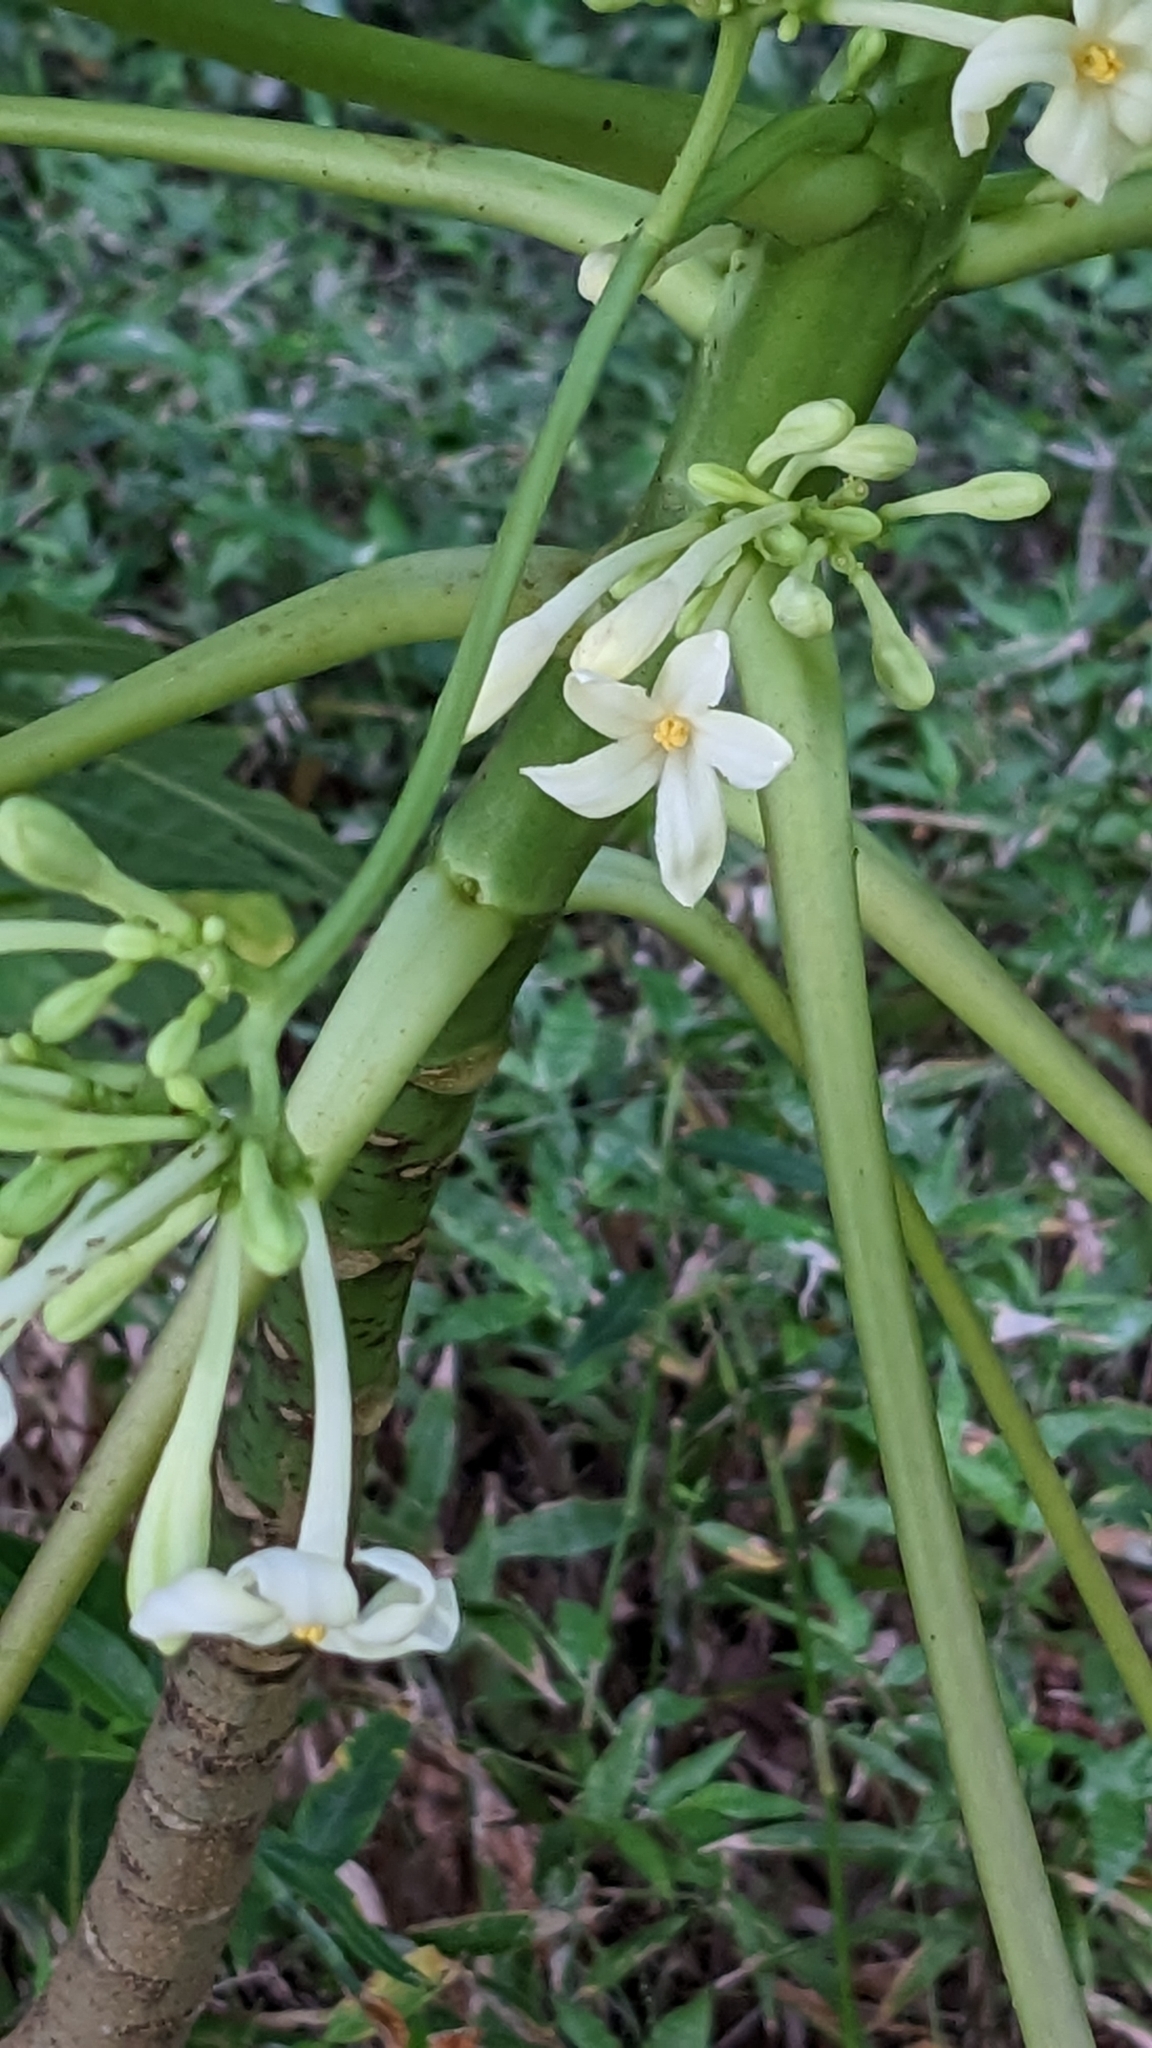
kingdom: Plantae
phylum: Tracheophyta
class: Magnoliopsida
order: Brassicales
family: Caricaceae
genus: Carica
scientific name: Carica papaya
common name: Papaya
